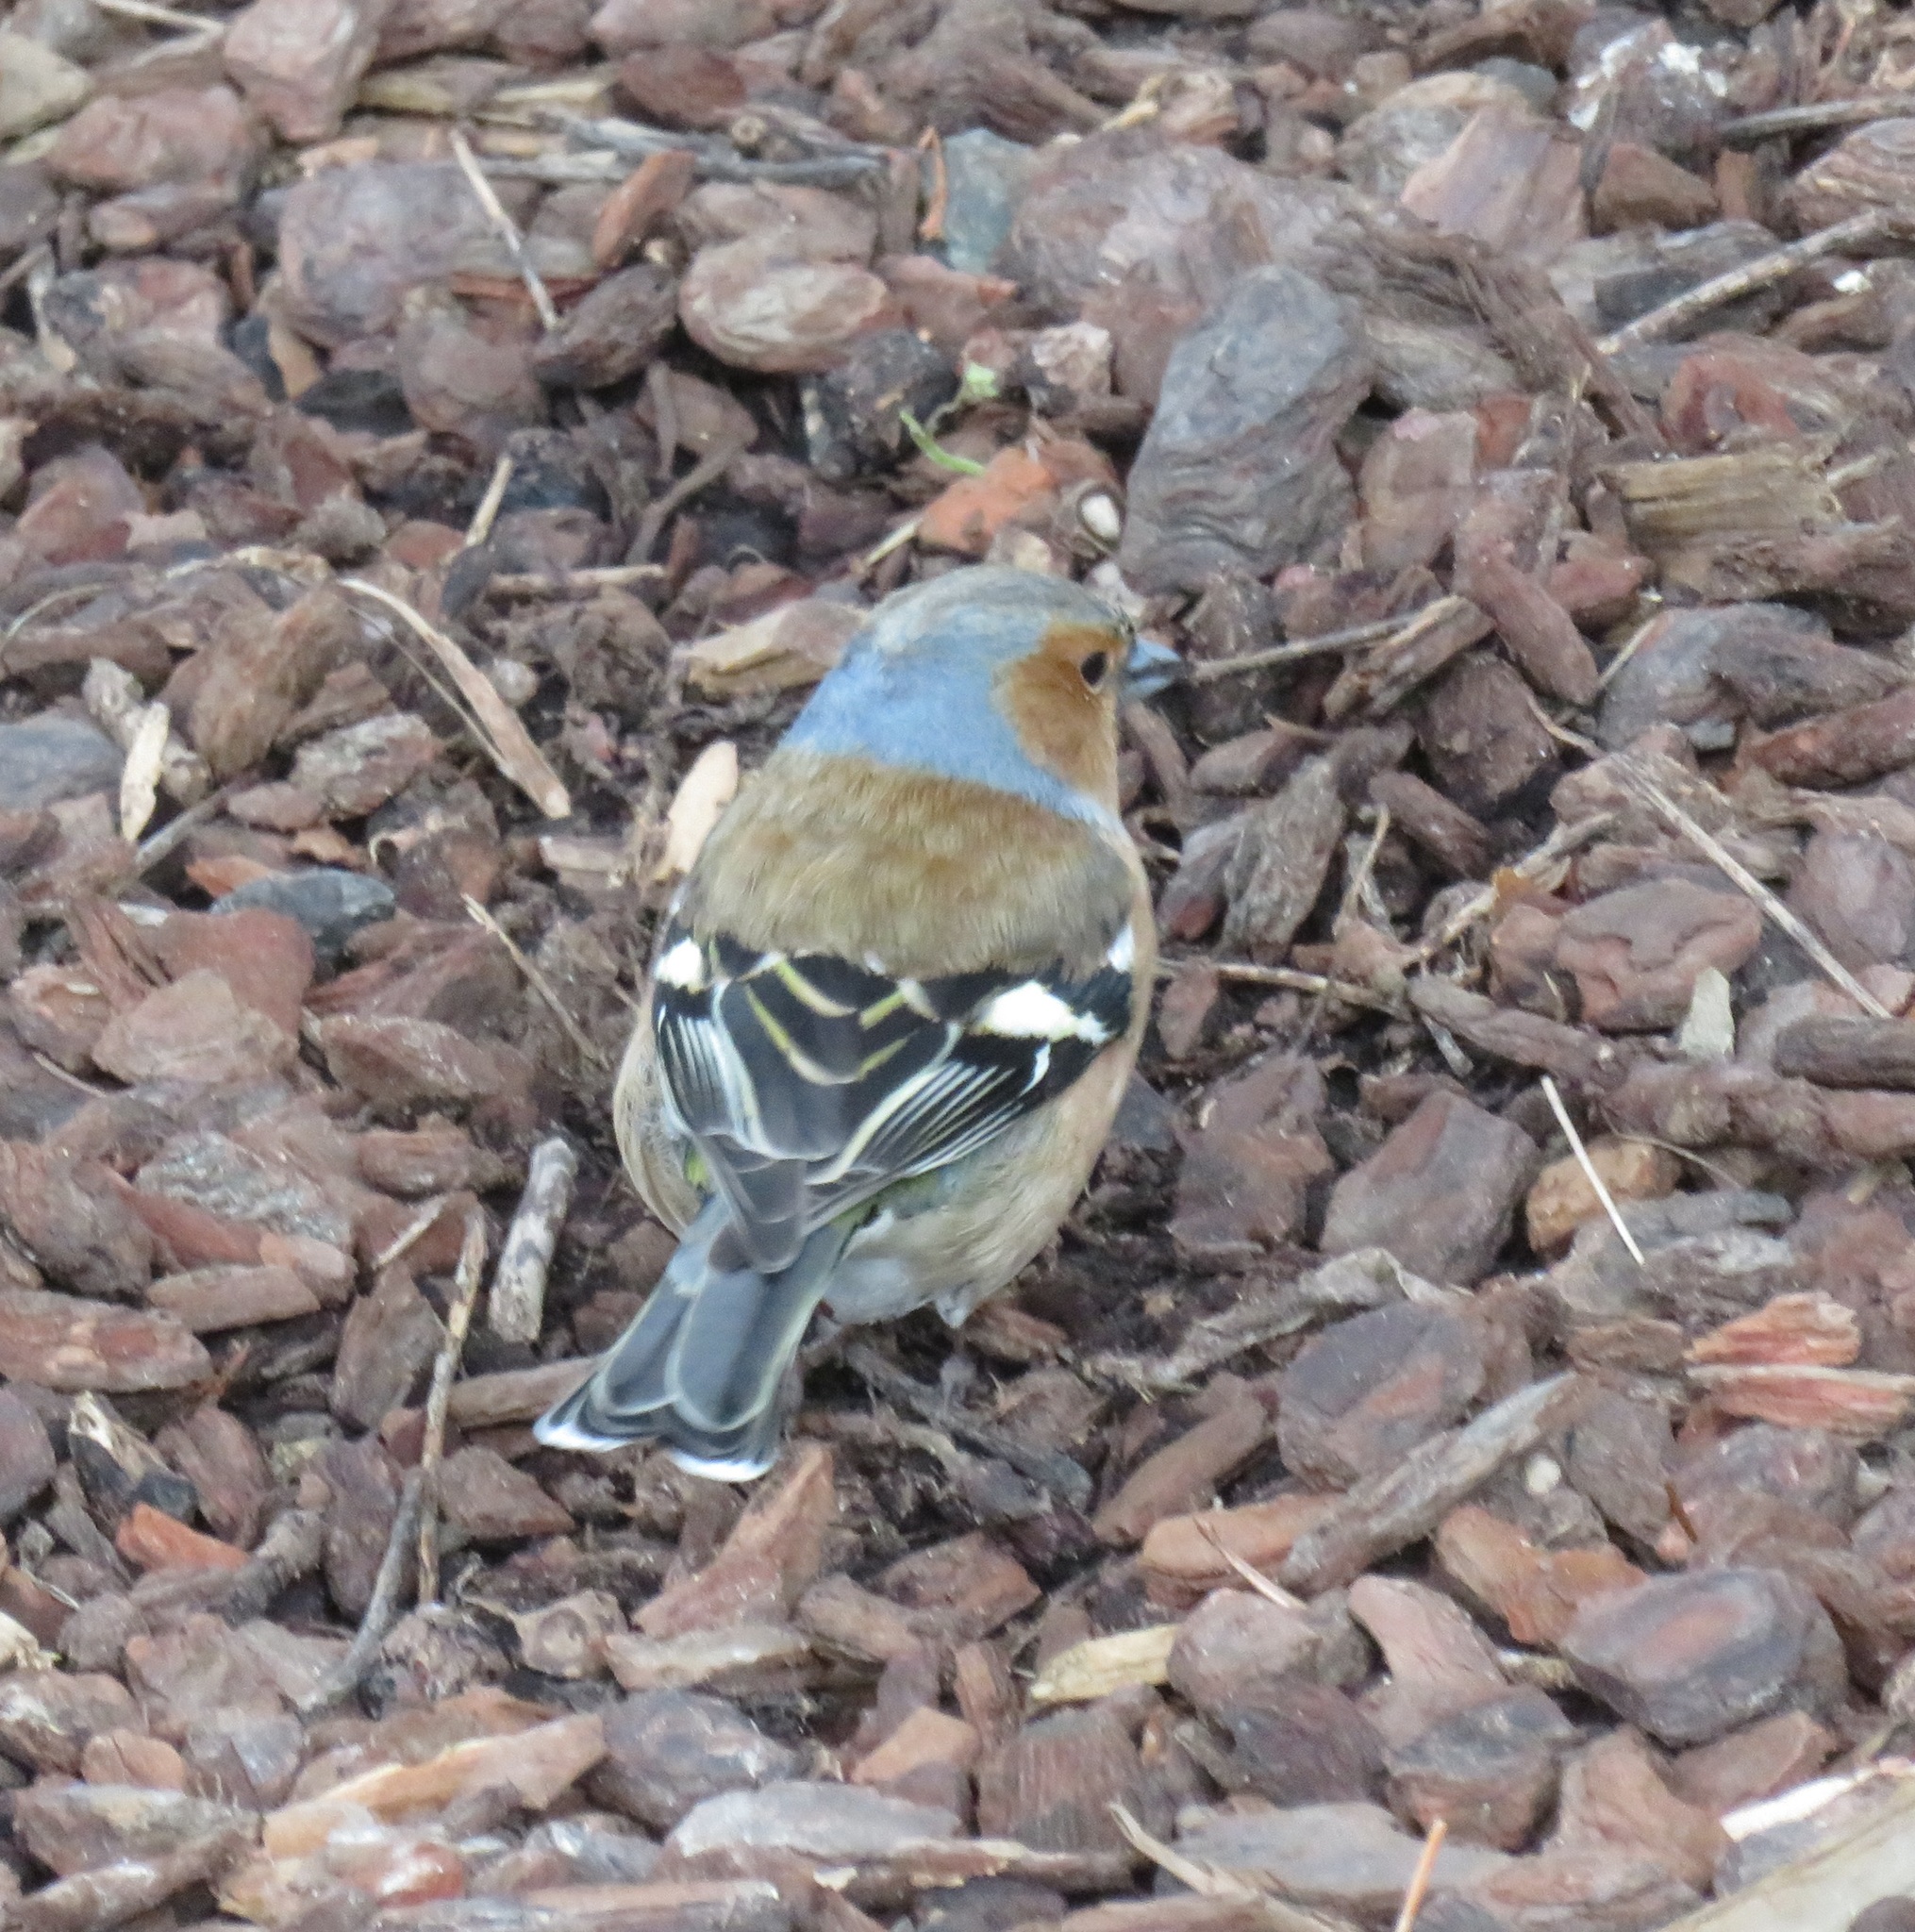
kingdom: Animalia
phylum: Chordata
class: Aves
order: Passeriformes
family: Fringillidae
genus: Fringilla
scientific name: Fringilla coelebs
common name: Common chaffinch
